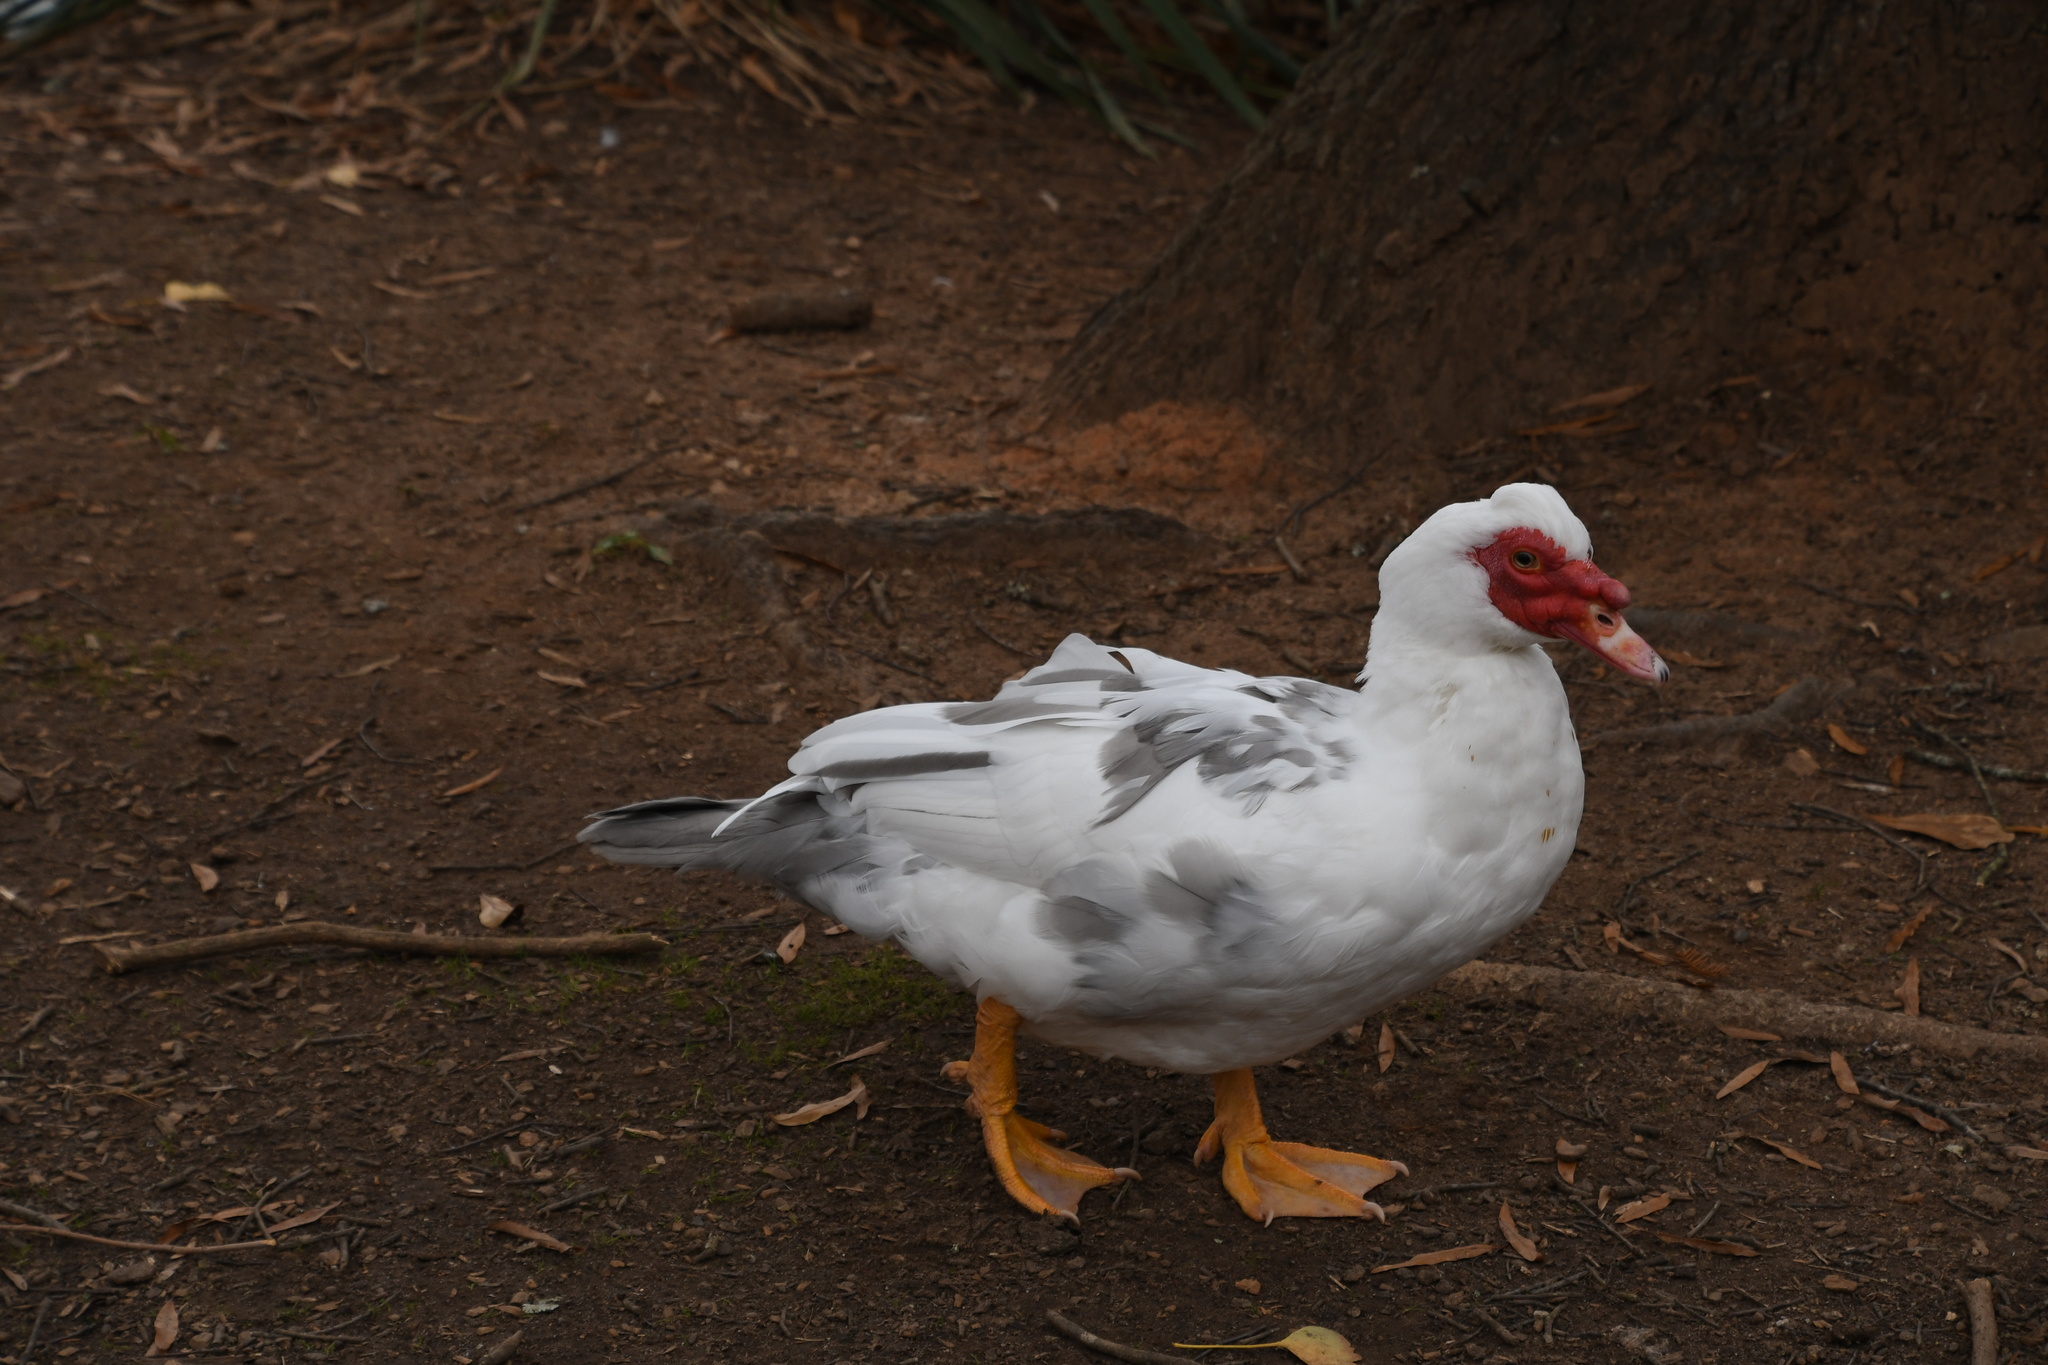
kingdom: Animalia
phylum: Chordata
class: Aves
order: Anseriformes
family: Anatidae
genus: Cairina
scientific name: Cairina moschata
